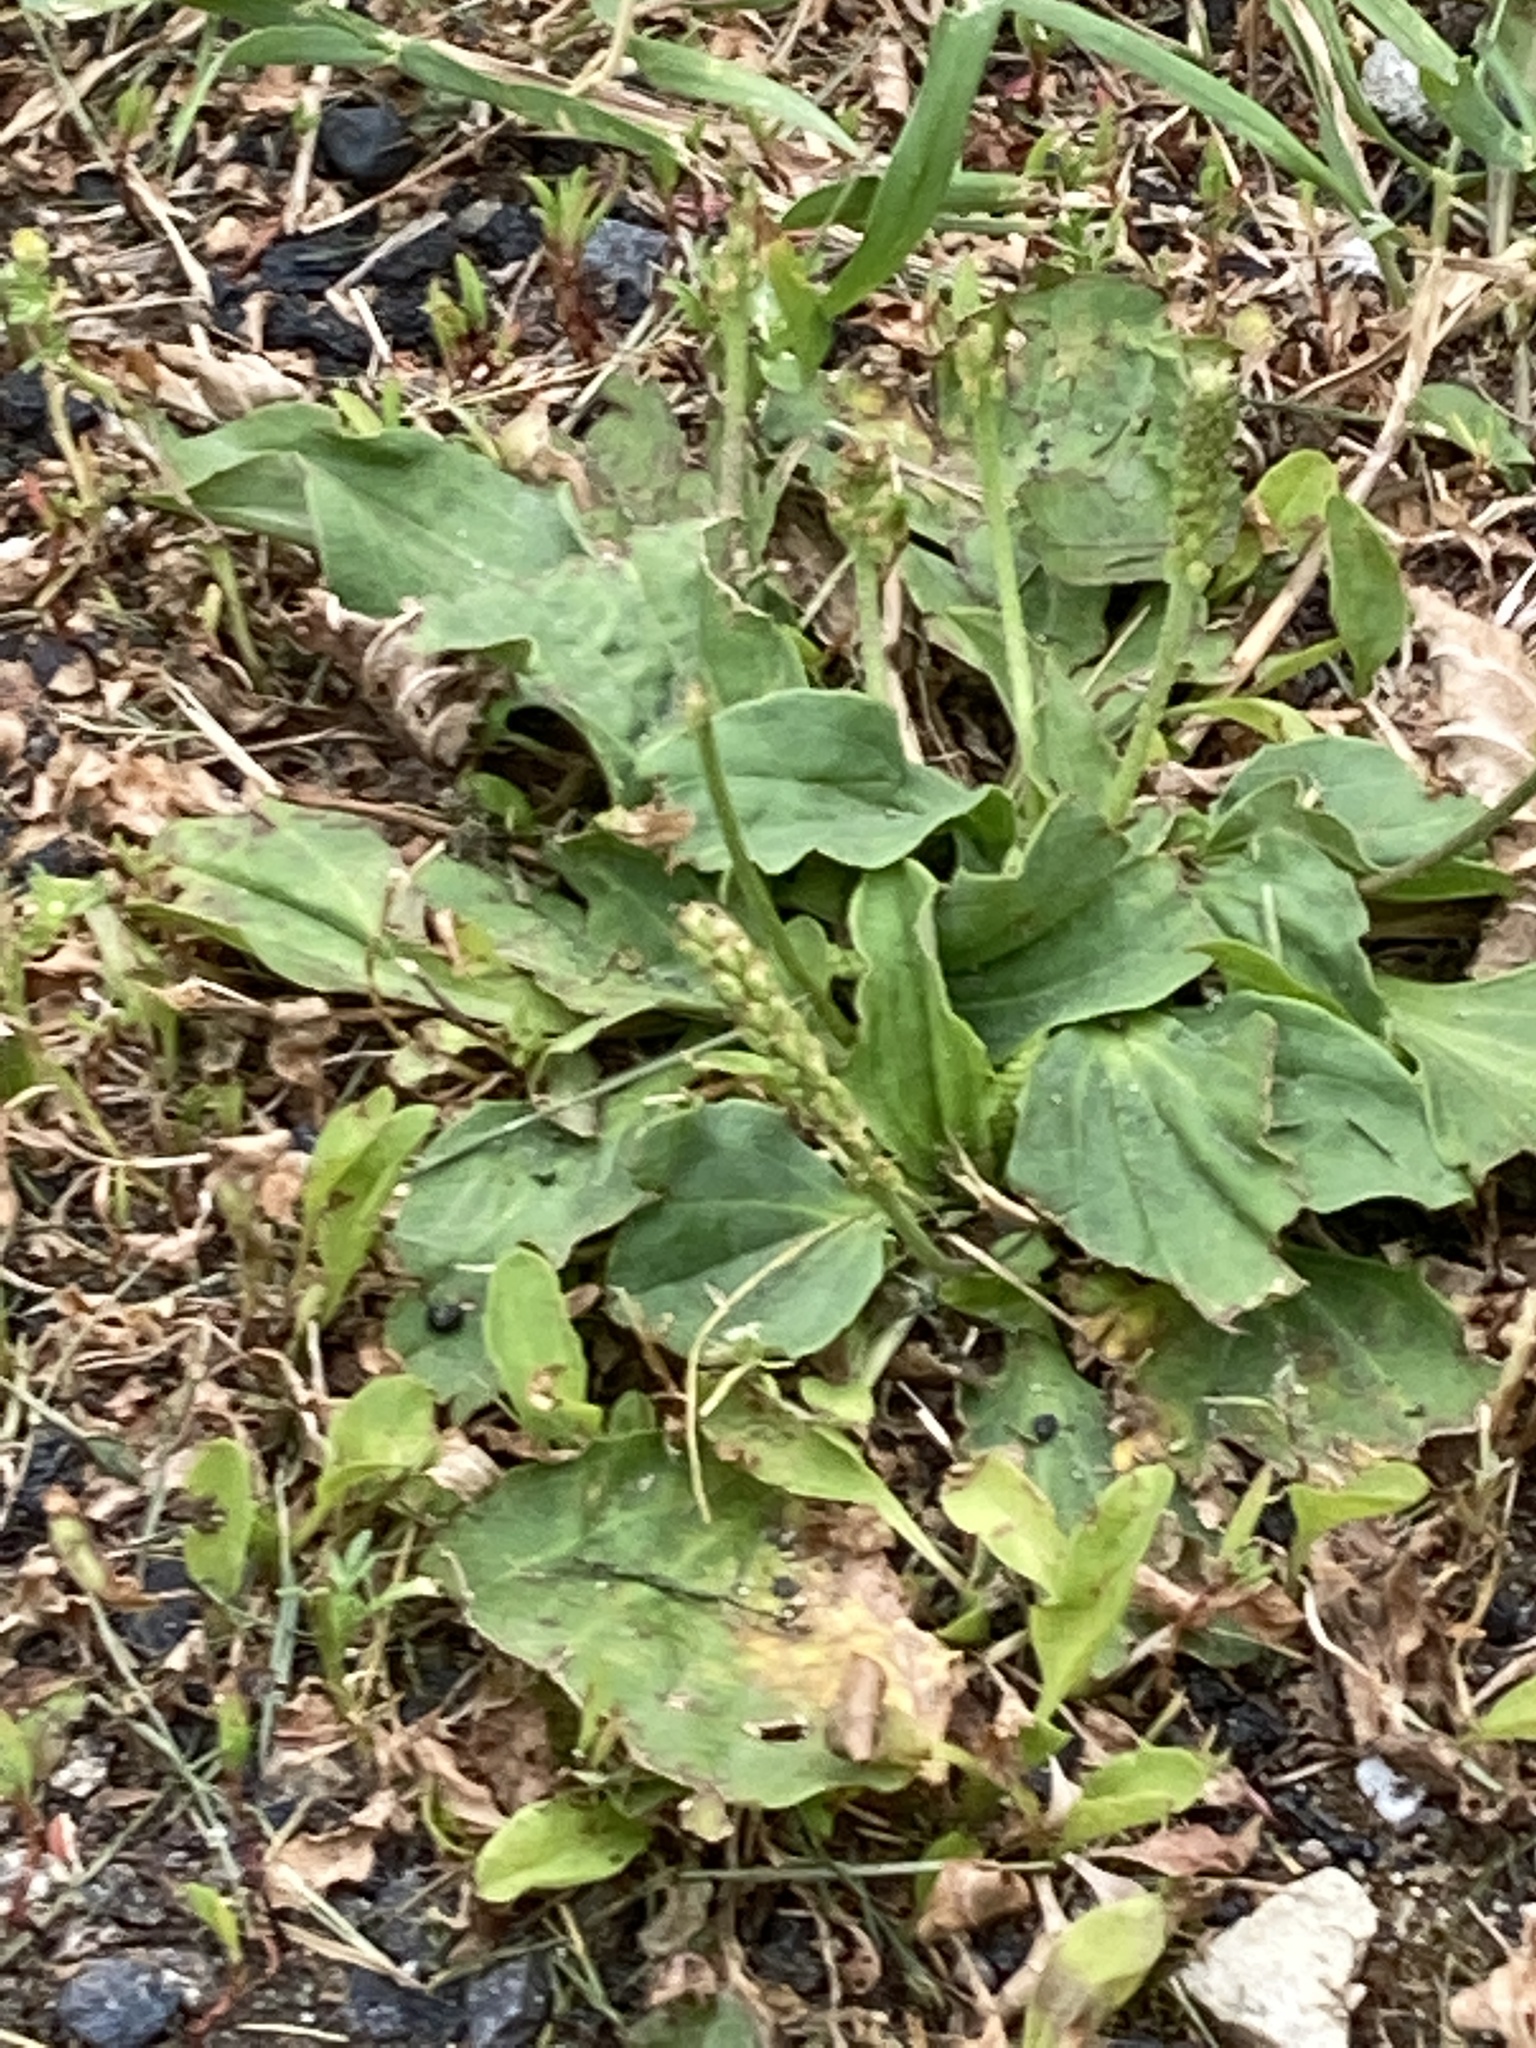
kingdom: Plantae
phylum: Tracheophyta
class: Magnoliopsida
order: Lamiales
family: Plantaginaceae
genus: Plantago
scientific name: Plantago major
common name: Common plantain
